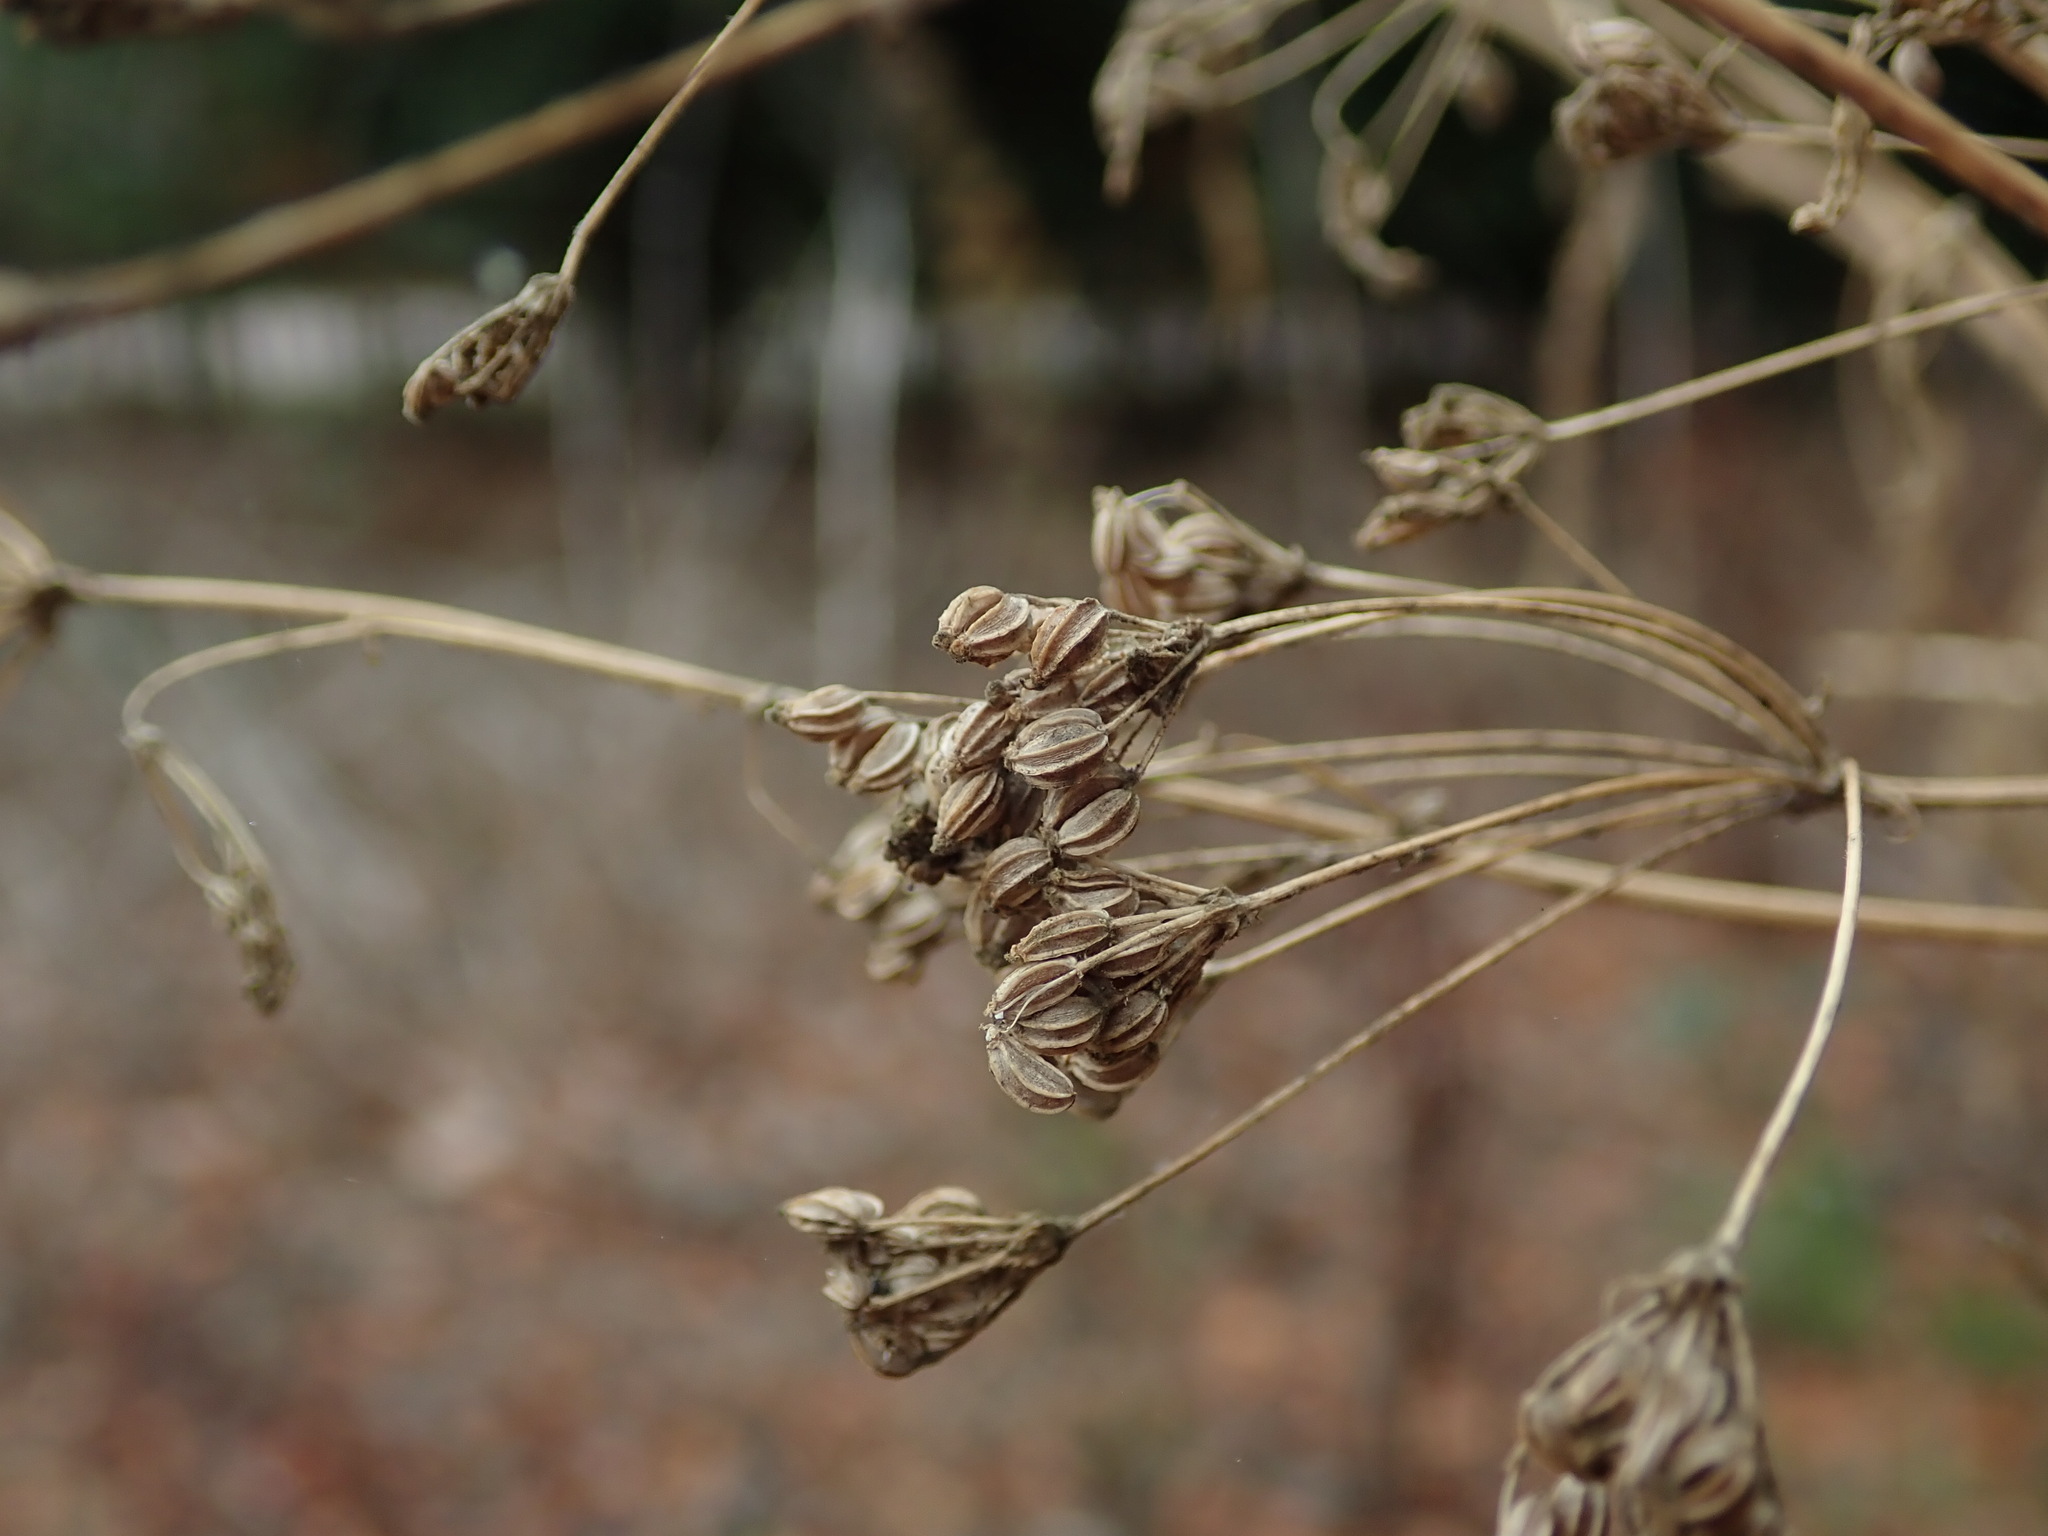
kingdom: Plantae
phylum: Tracheophyta
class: Magnoliopsida
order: Apiales
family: Apiaceae
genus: Conium
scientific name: Conium maculatum
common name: Hemlock
